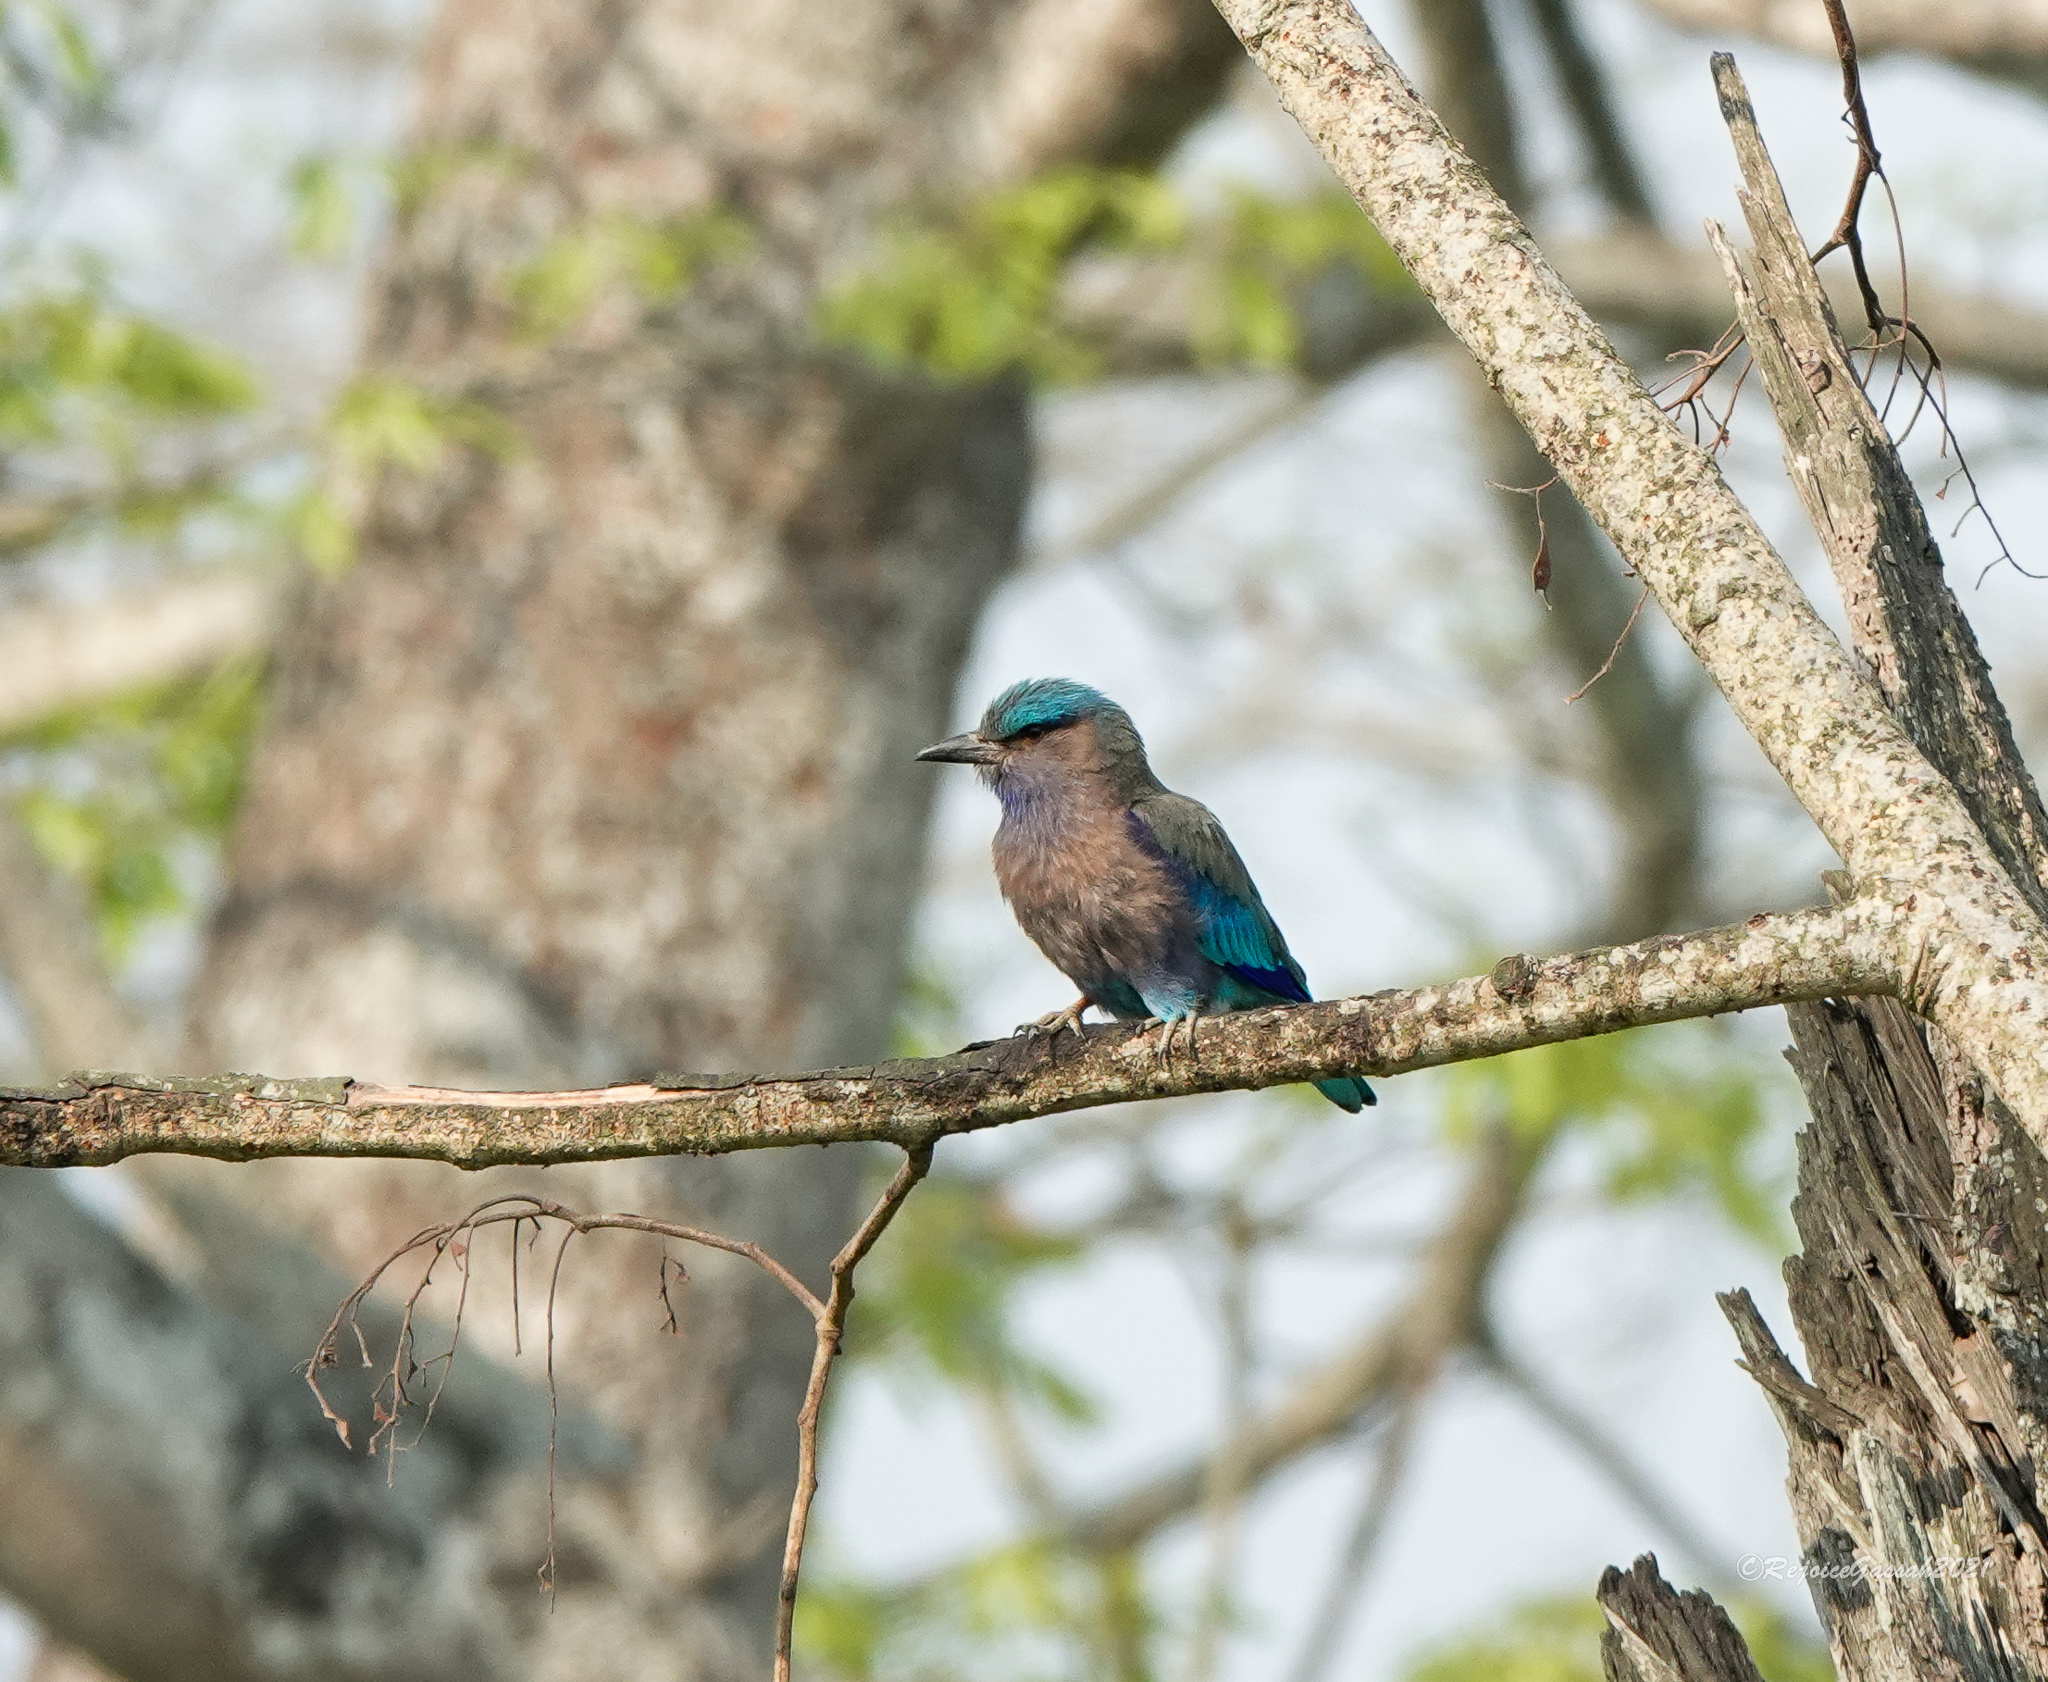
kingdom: Animalia
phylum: Chordata
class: Aves
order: Coraciiformes
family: Coraciidae
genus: Coracias
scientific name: Coracias affinis
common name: Indochinese roller
